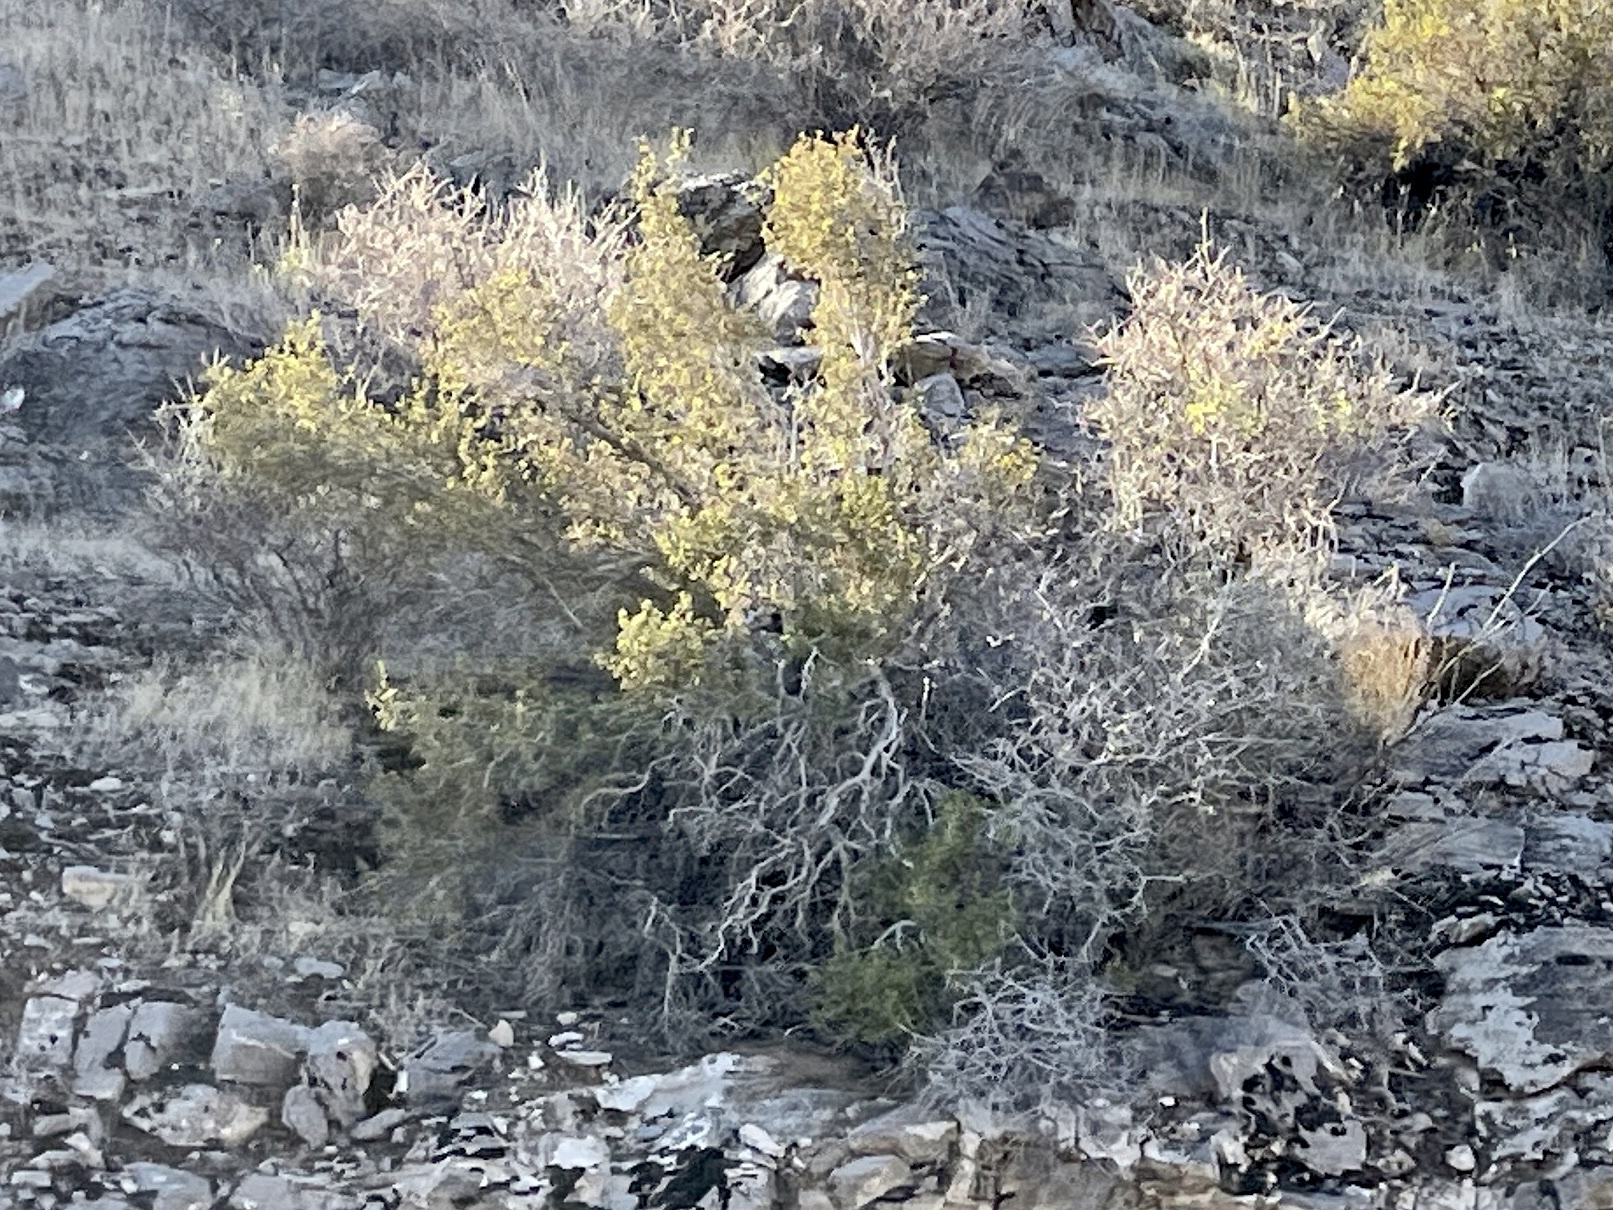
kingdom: Plantae
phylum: Tracheophyta
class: Magnoliopsida
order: Zygophyllales
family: Zygophyllaceae
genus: Larrea
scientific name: Larrea tridentata
